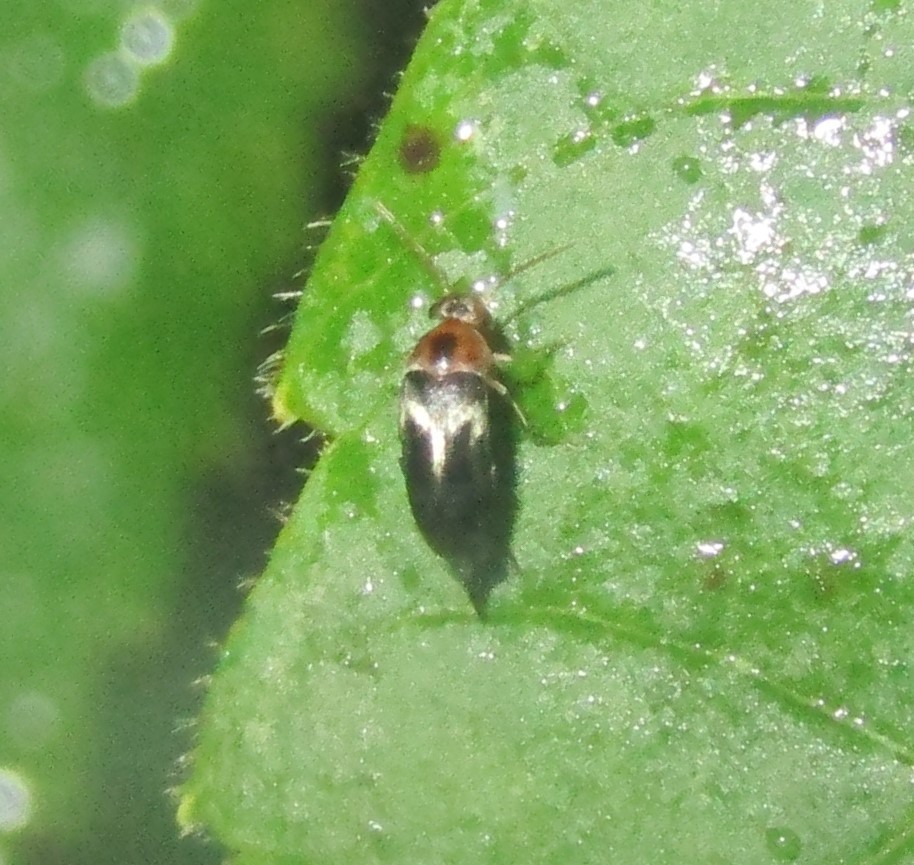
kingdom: Animalia
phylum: Arthropoda
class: Insecta
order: Coleoptera
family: Mordellidae
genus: Falsomordellistena
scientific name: Falsomordellistena hebraica
